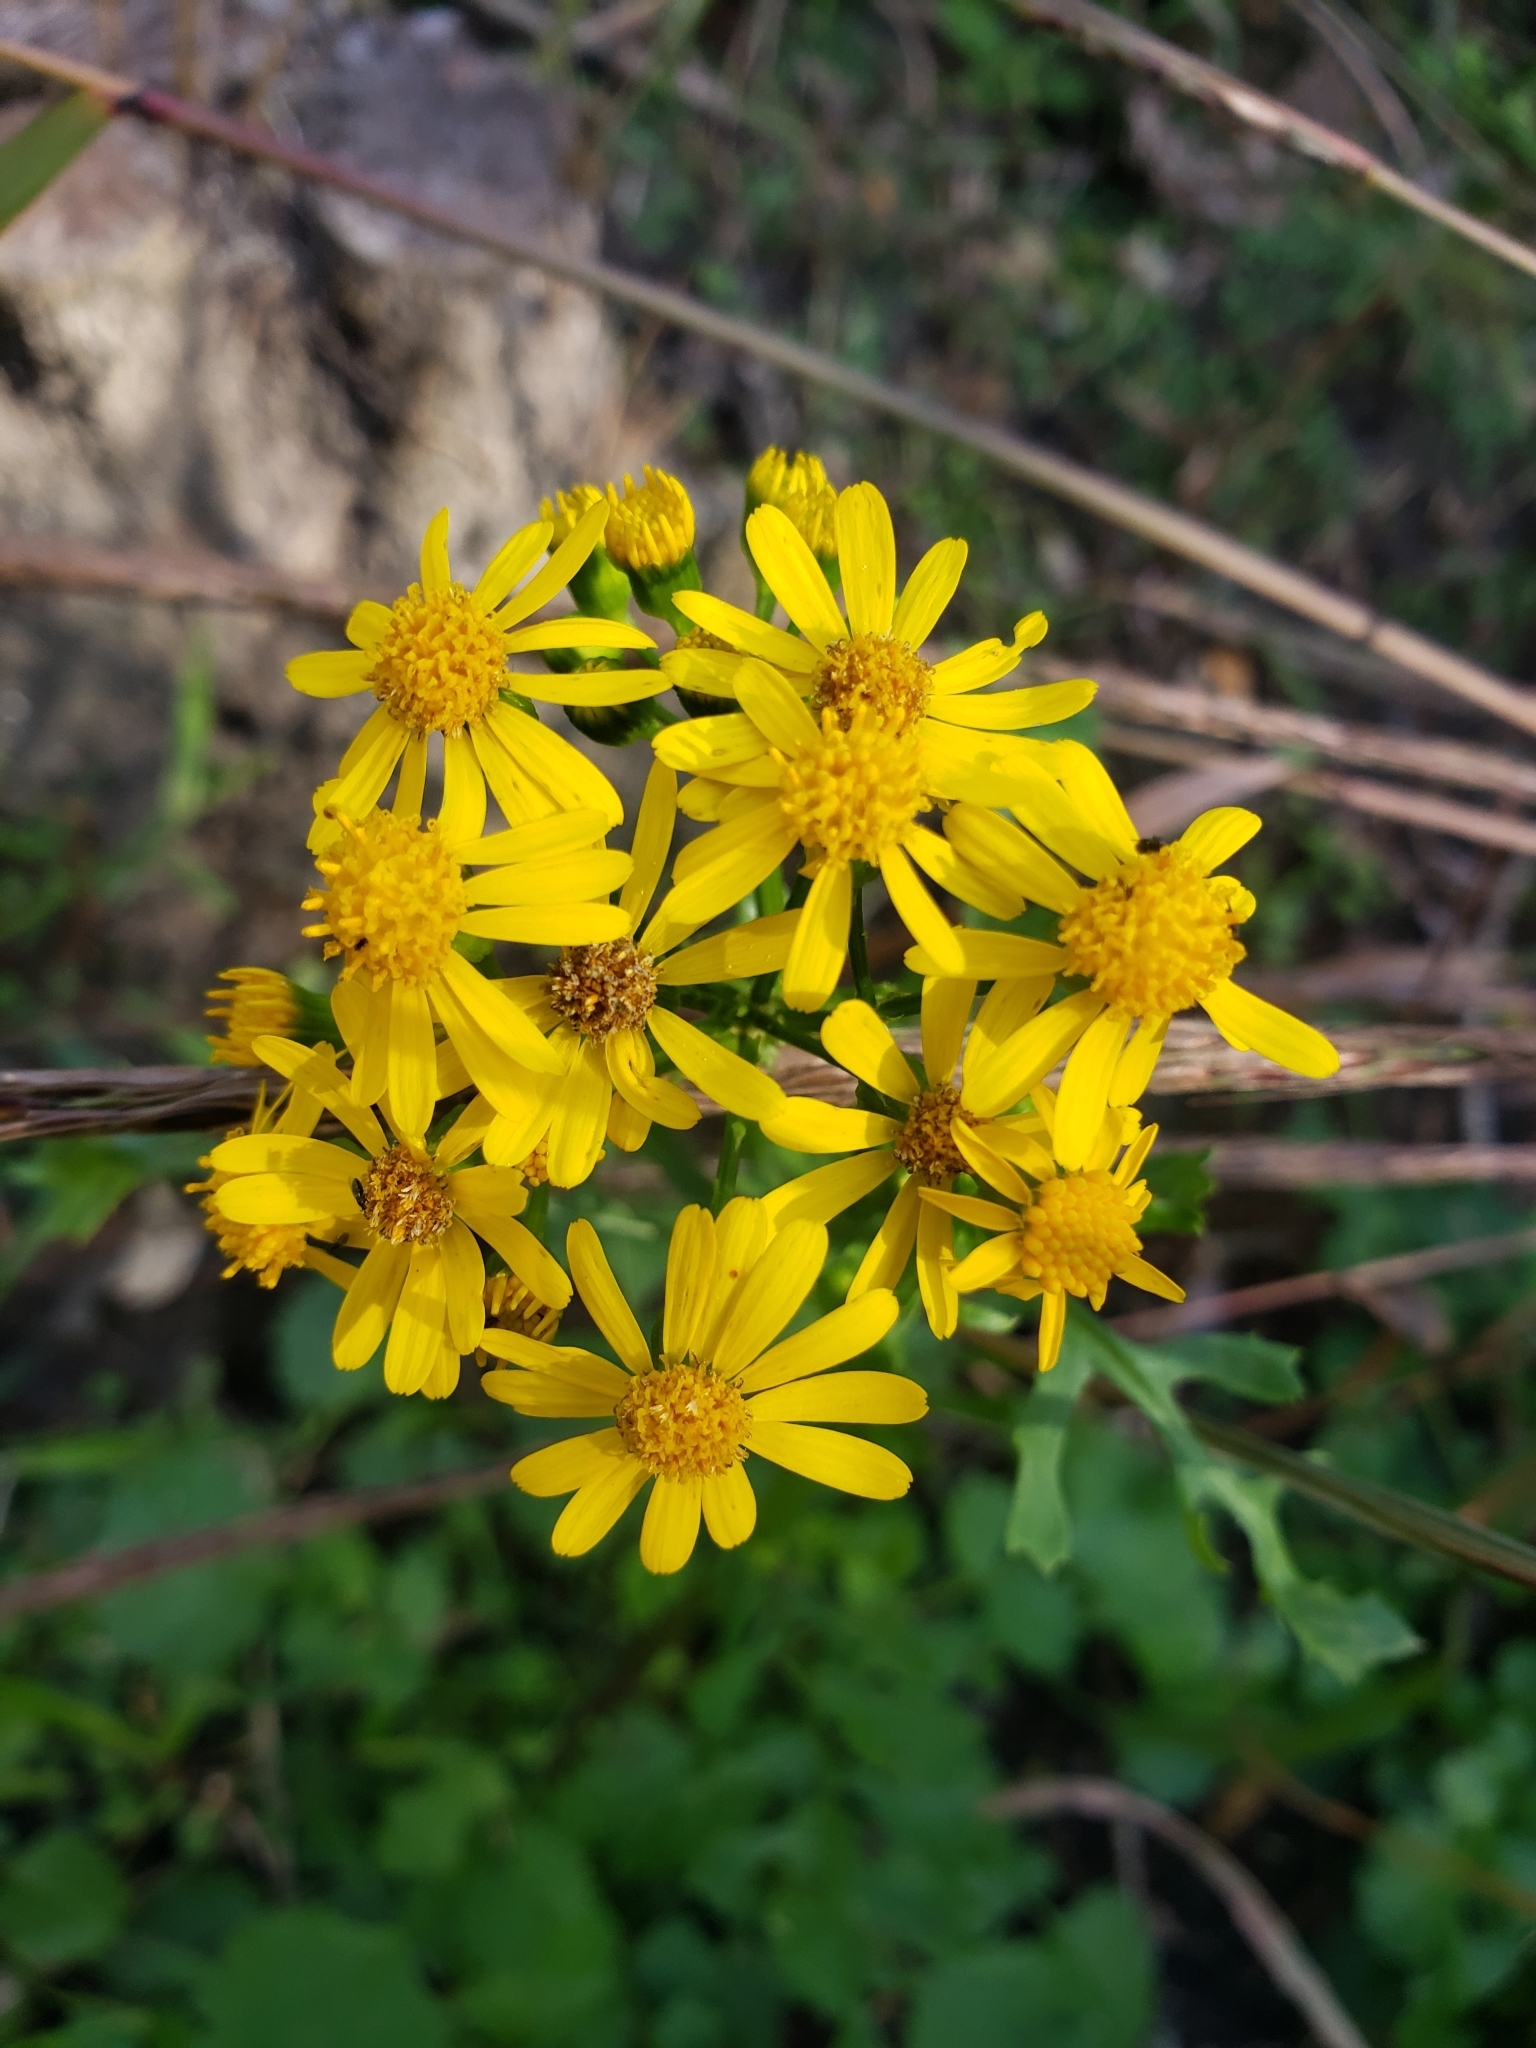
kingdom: Plantae
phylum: Tracheophyta
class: Magnoliopsida
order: Asterales
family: Asteraceae
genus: Packera
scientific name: Packera glabella
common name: Butterweed
